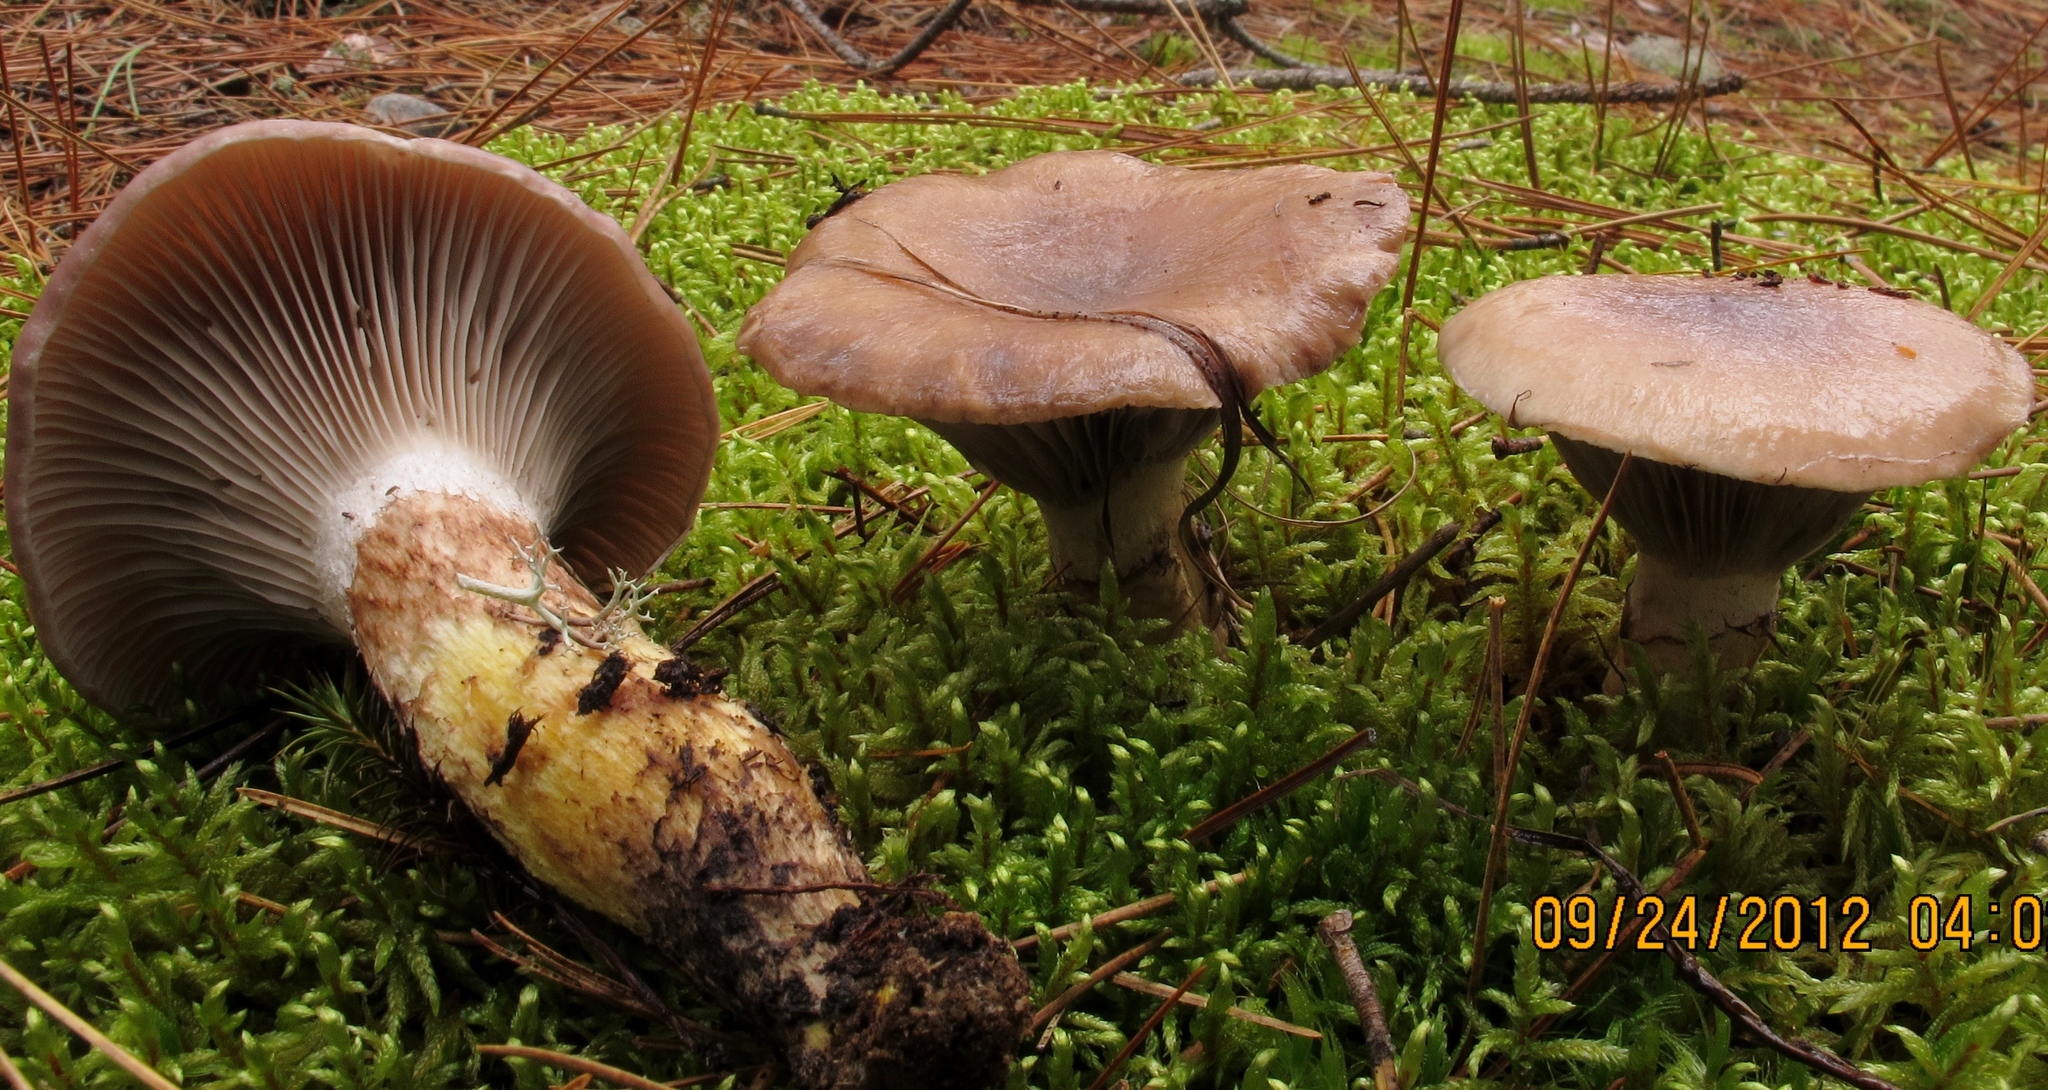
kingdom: Fungi
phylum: Basidiomycota
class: Agaricomycetes
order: Boletales
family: Gomphidiaceae
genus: Gomphidius
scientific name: Gomphidius glutinosus
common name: Slimy spike
